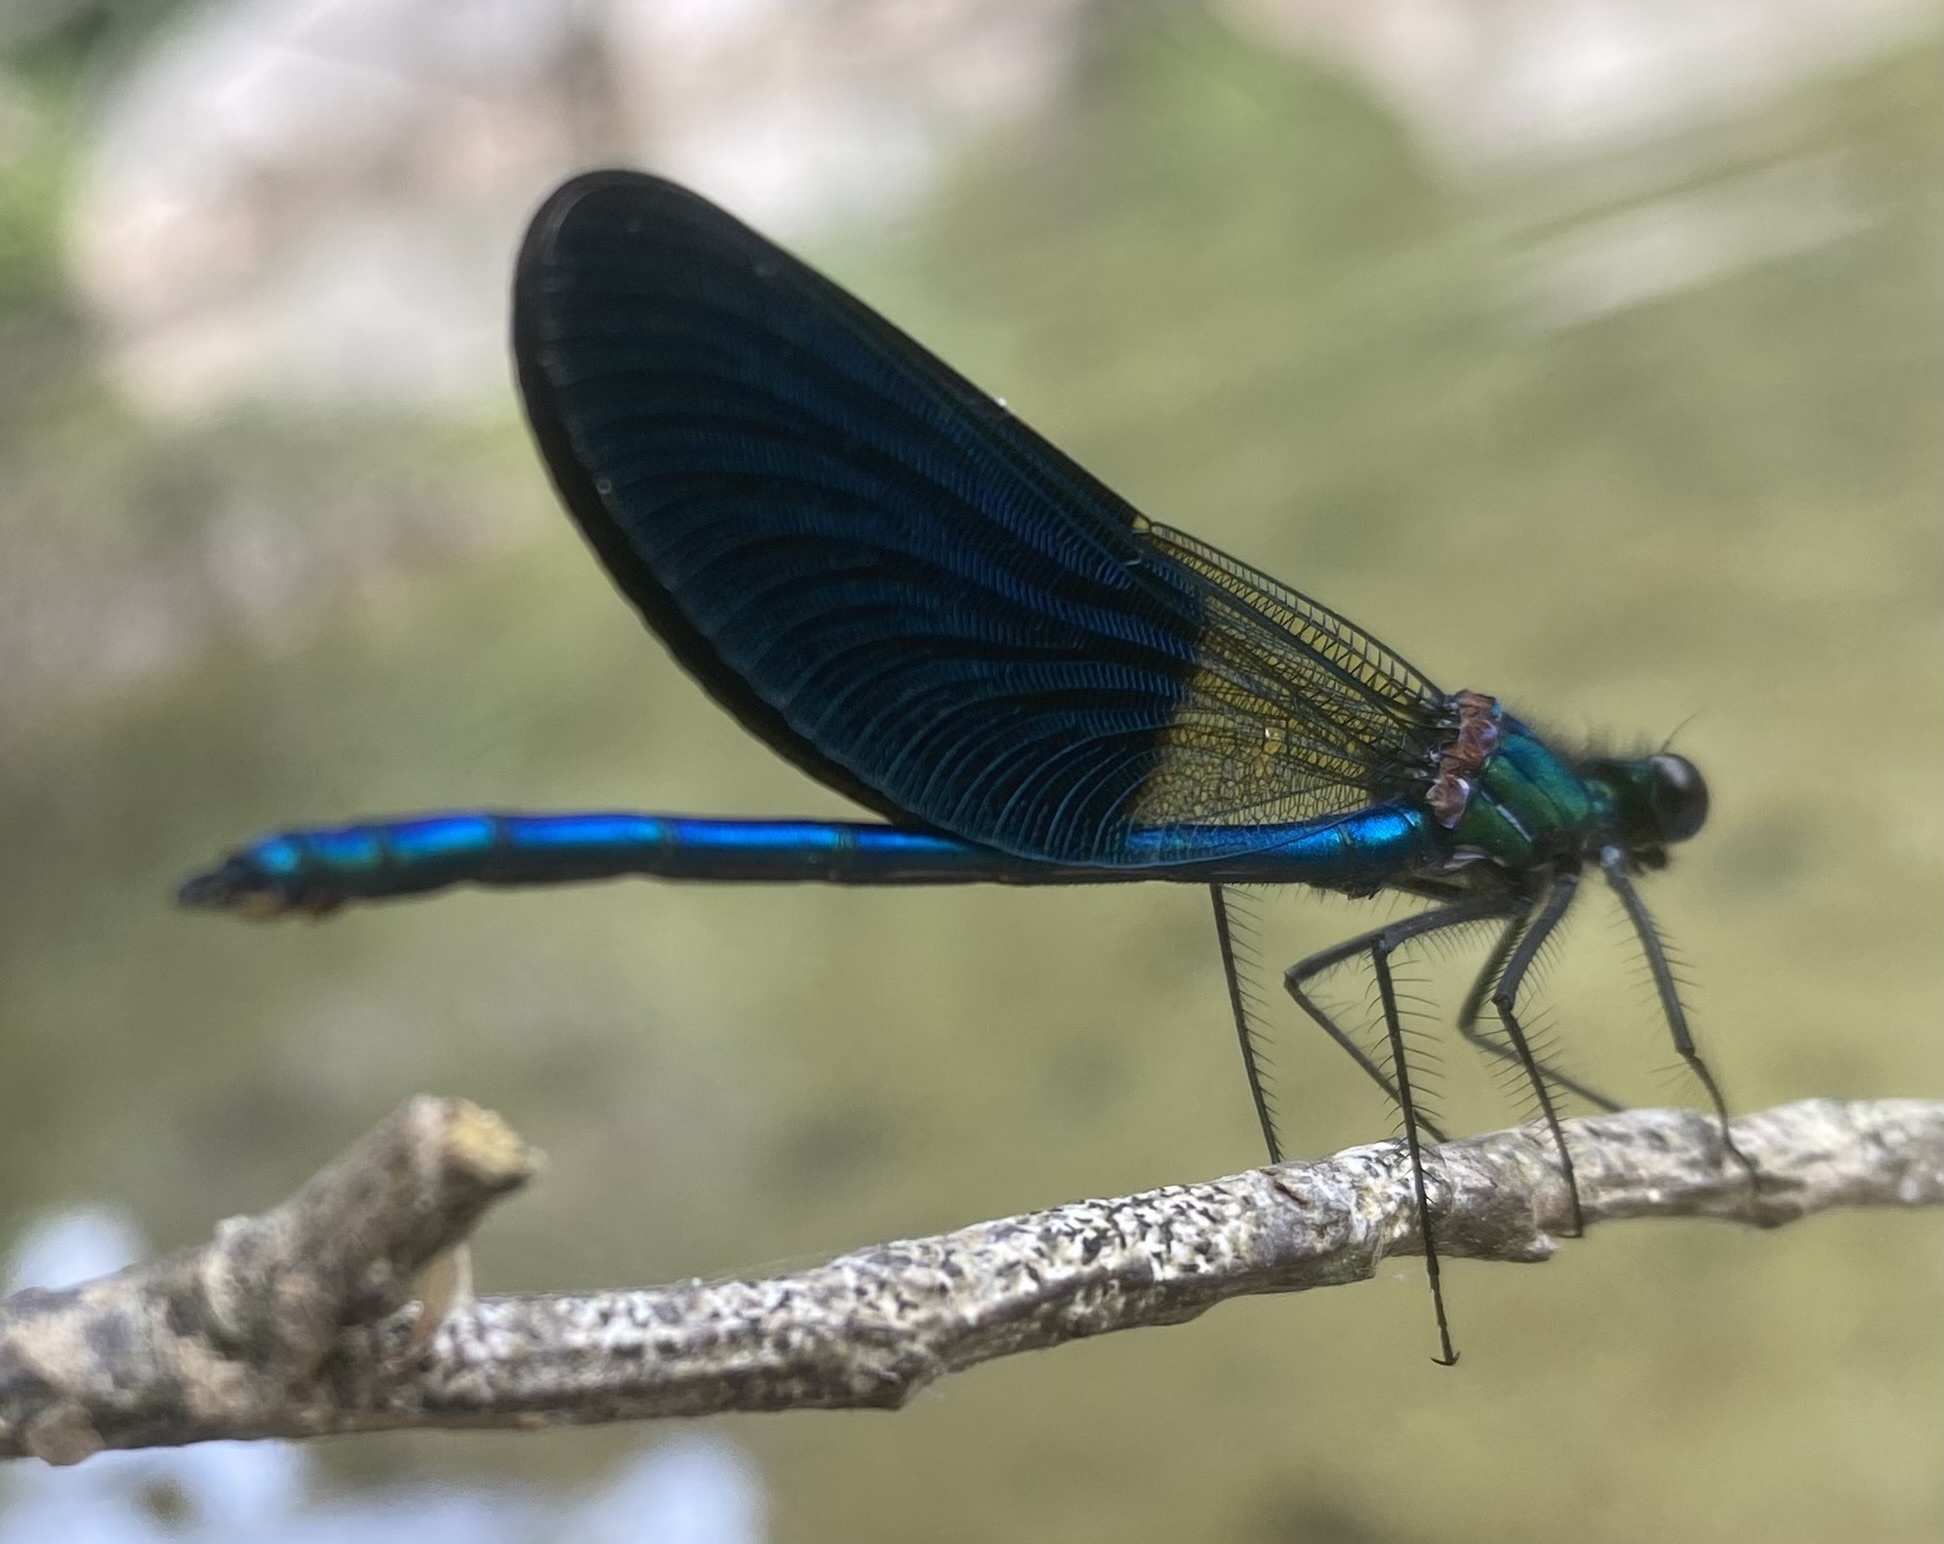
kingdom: Animalia
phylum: Arthropoda
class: Insecta
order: Odonata
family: Calopterygidae
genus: Calopteryx
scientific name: Calopteryx xanthostoma
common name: Western demoiselle
